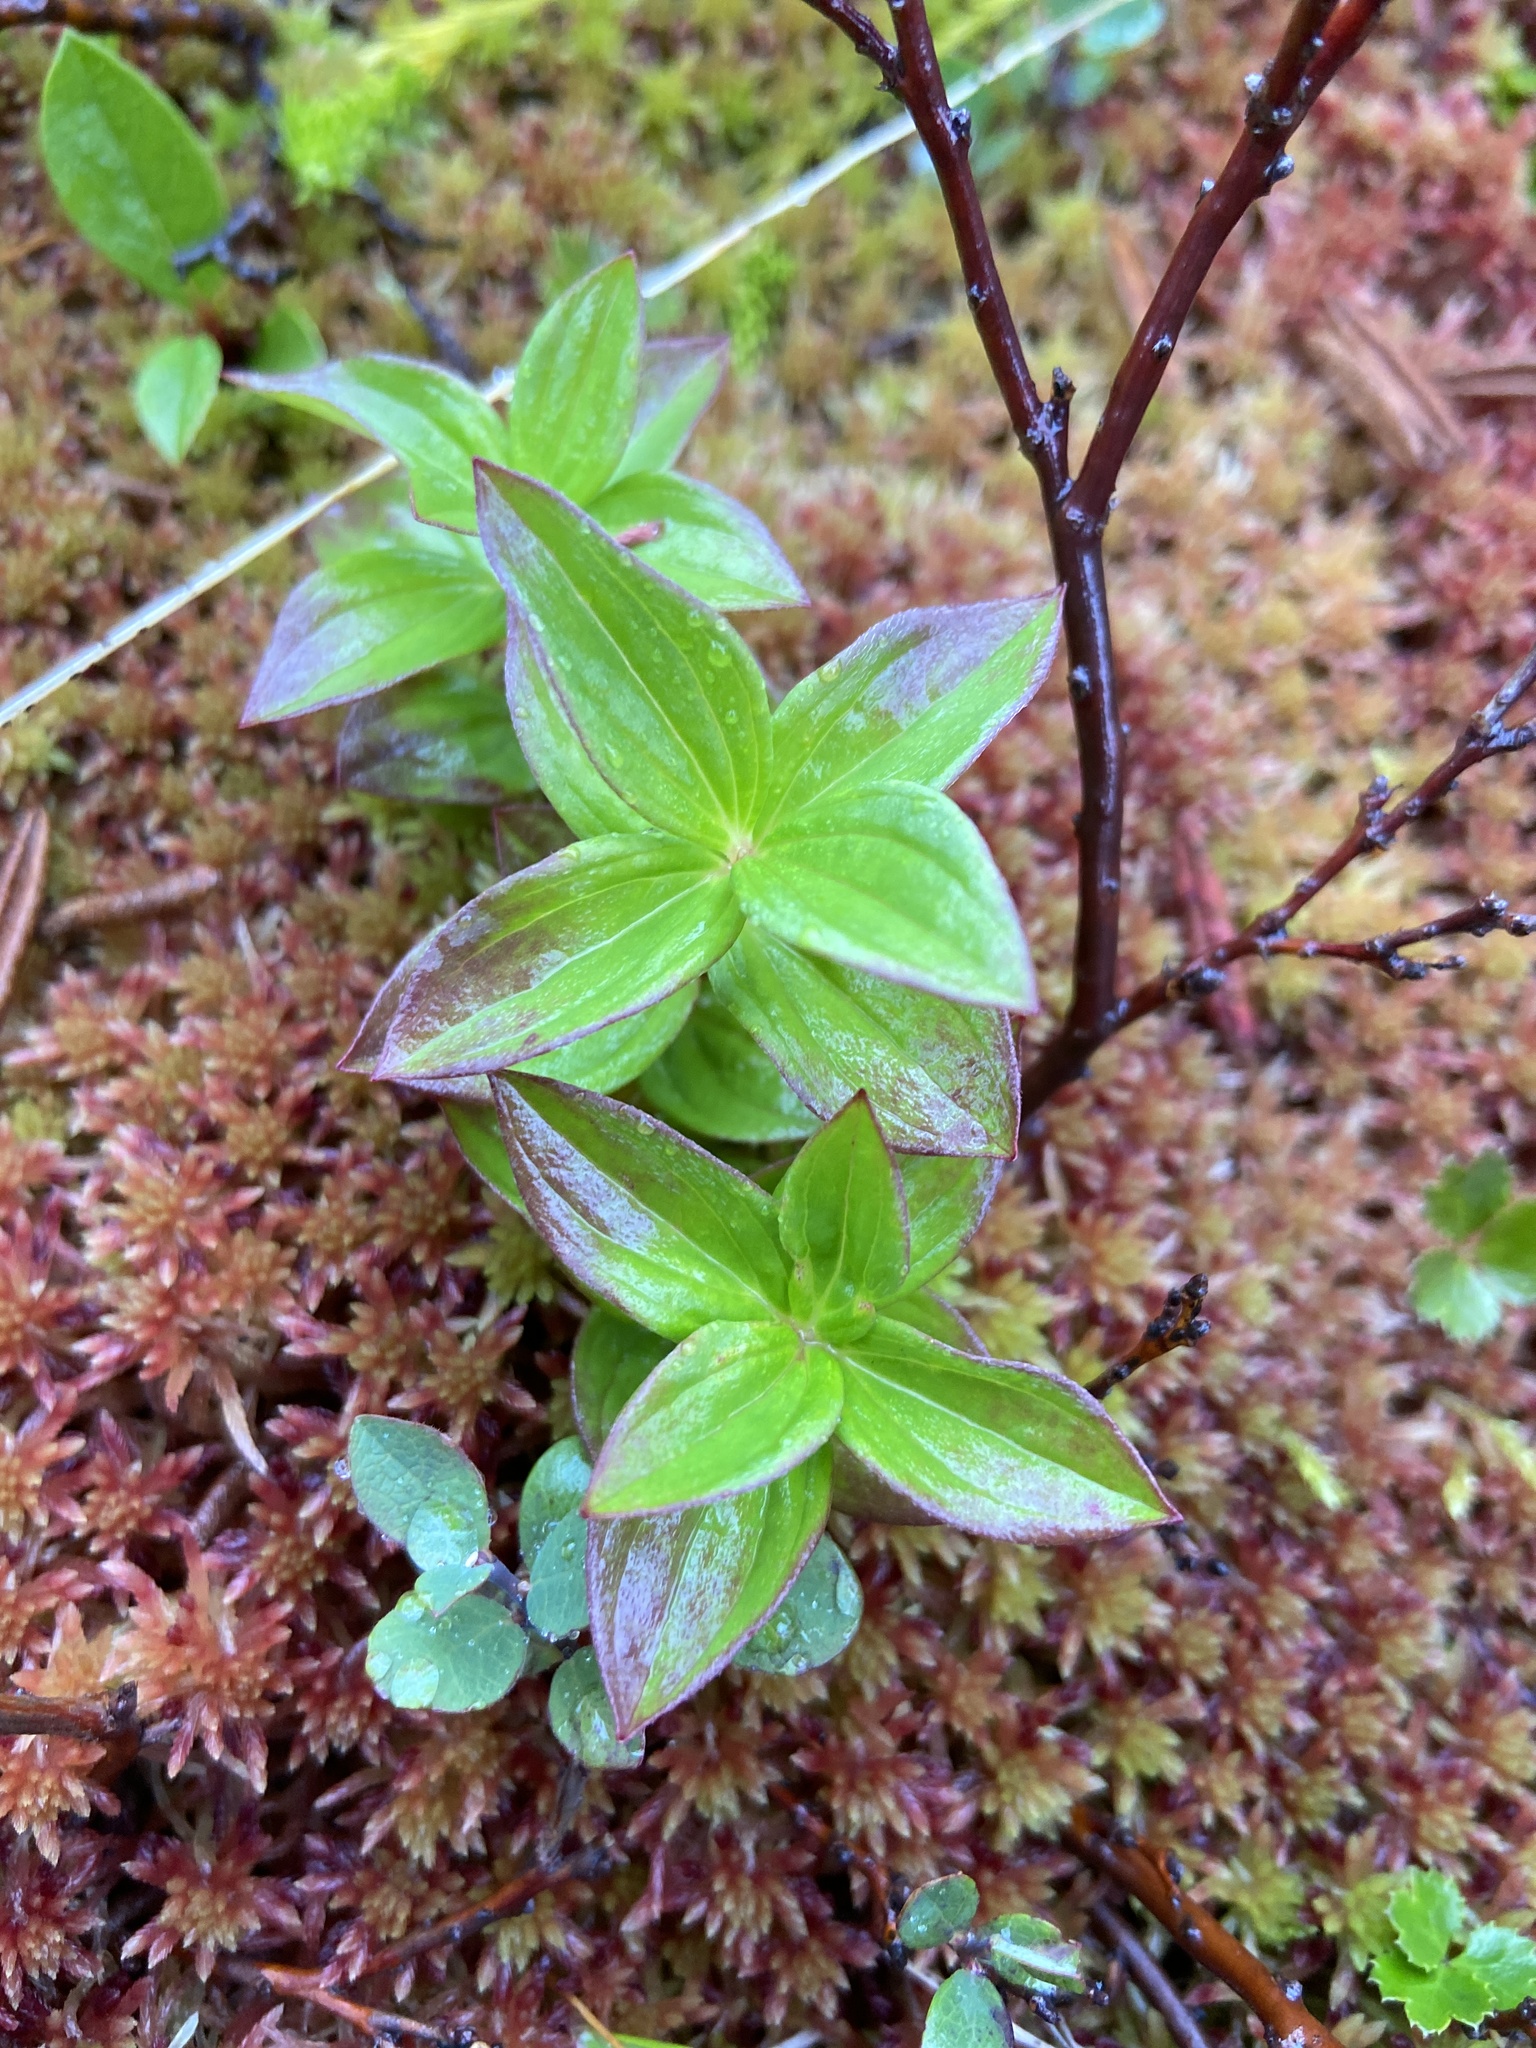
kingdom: Plantae
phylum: Tracheophyta
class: Magnoliopsida
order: Cornales
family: Cornaceae
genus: Cornus
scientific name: Cornus suecica
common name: Dwarf cornel
